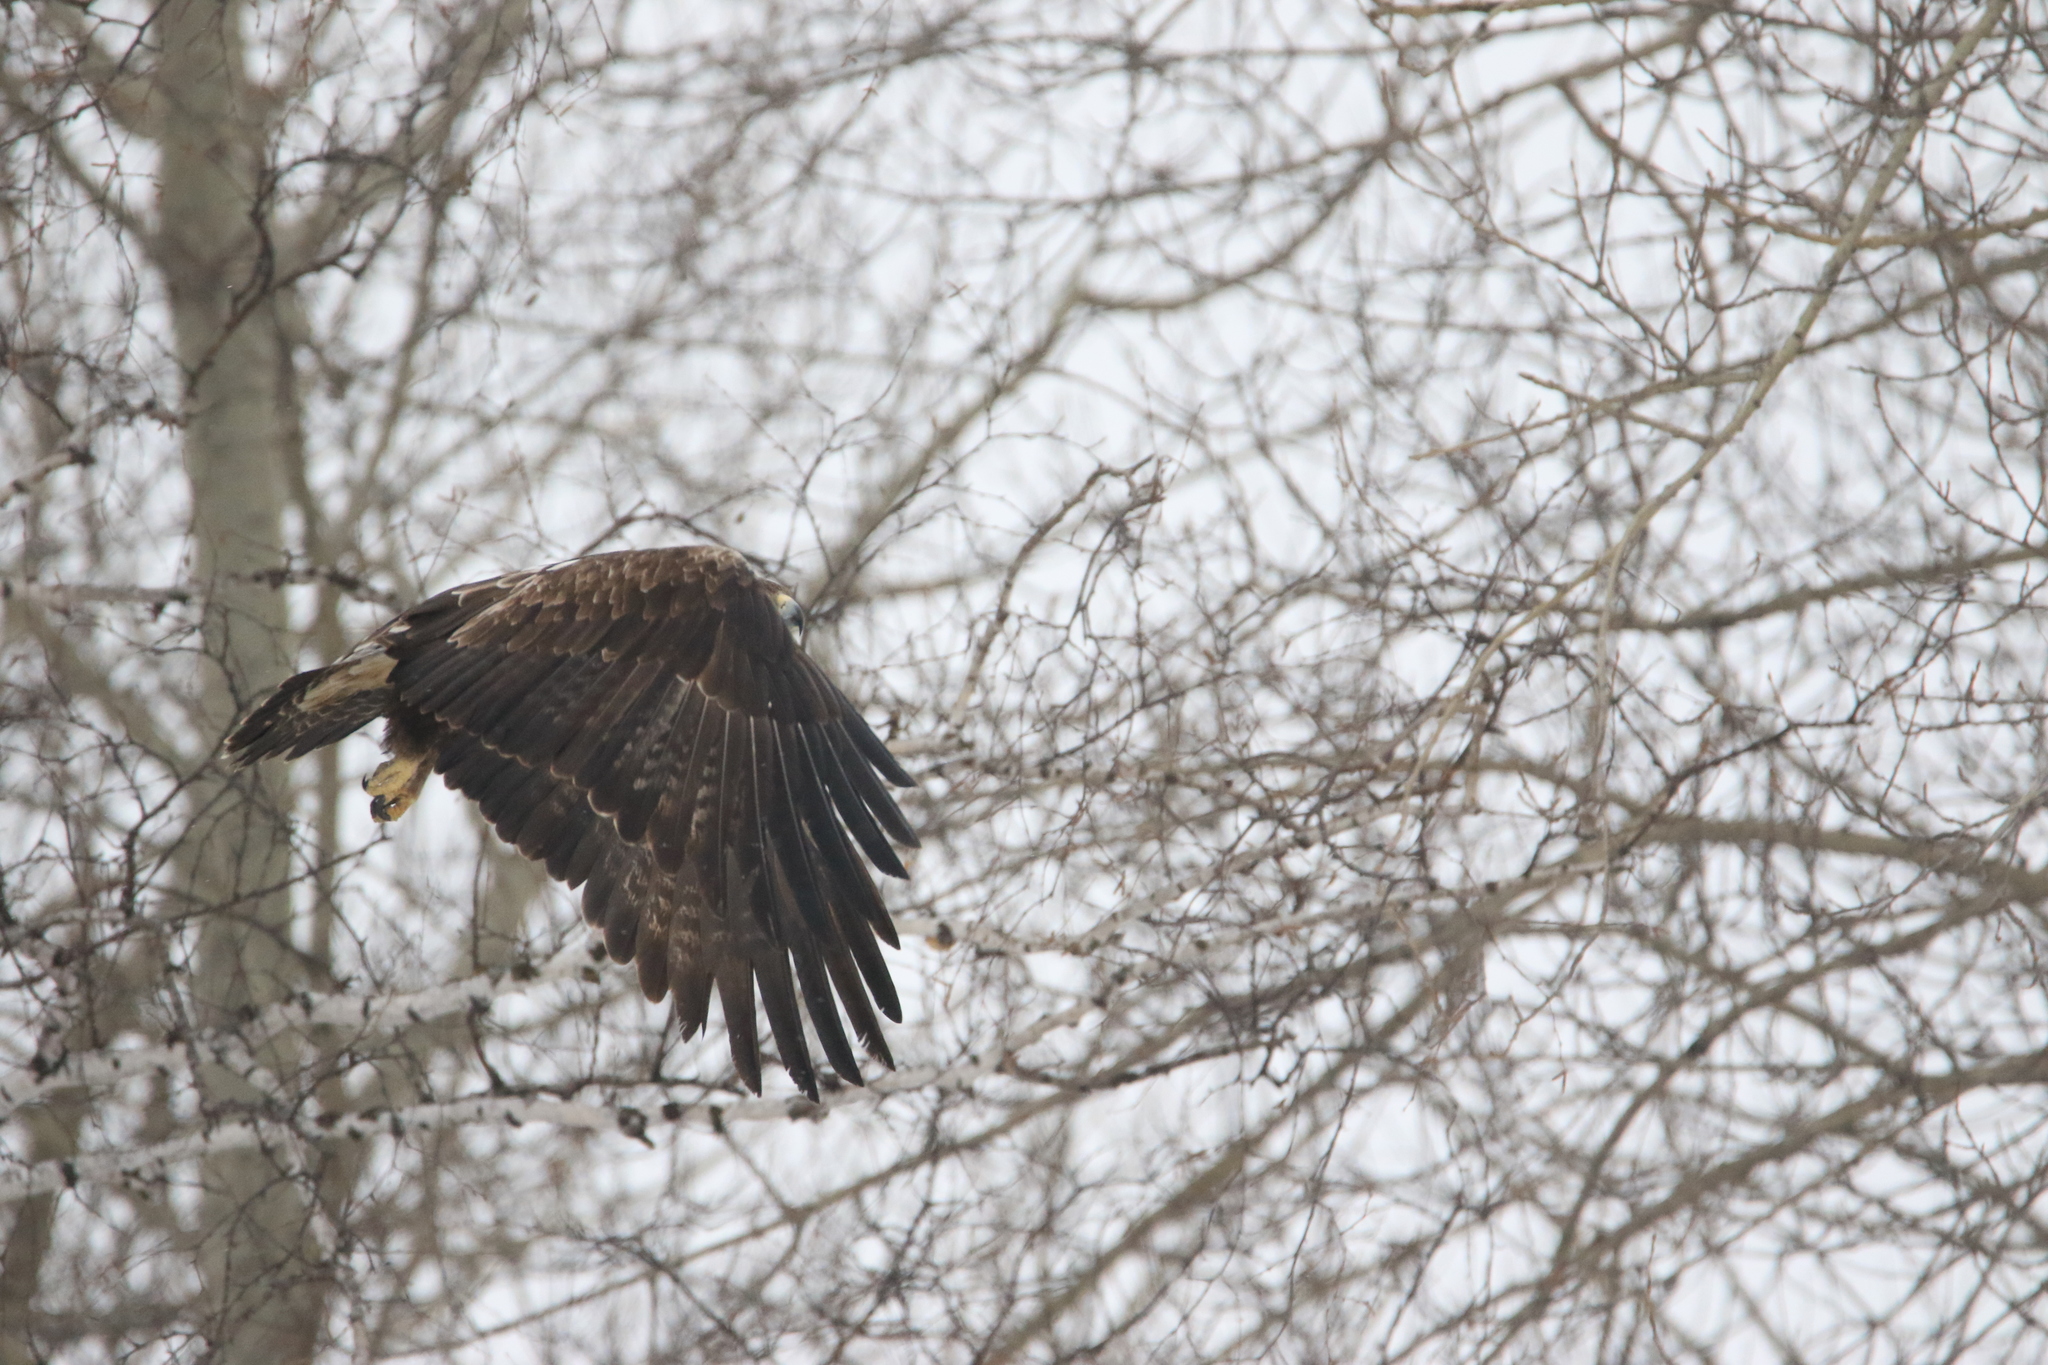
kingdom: Animalia
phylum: Chordata
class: Aves
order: Accipitriformes
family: Accipitridae
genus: Aquila
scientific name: Aquila heliaca
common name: Eastern imperial eagle
